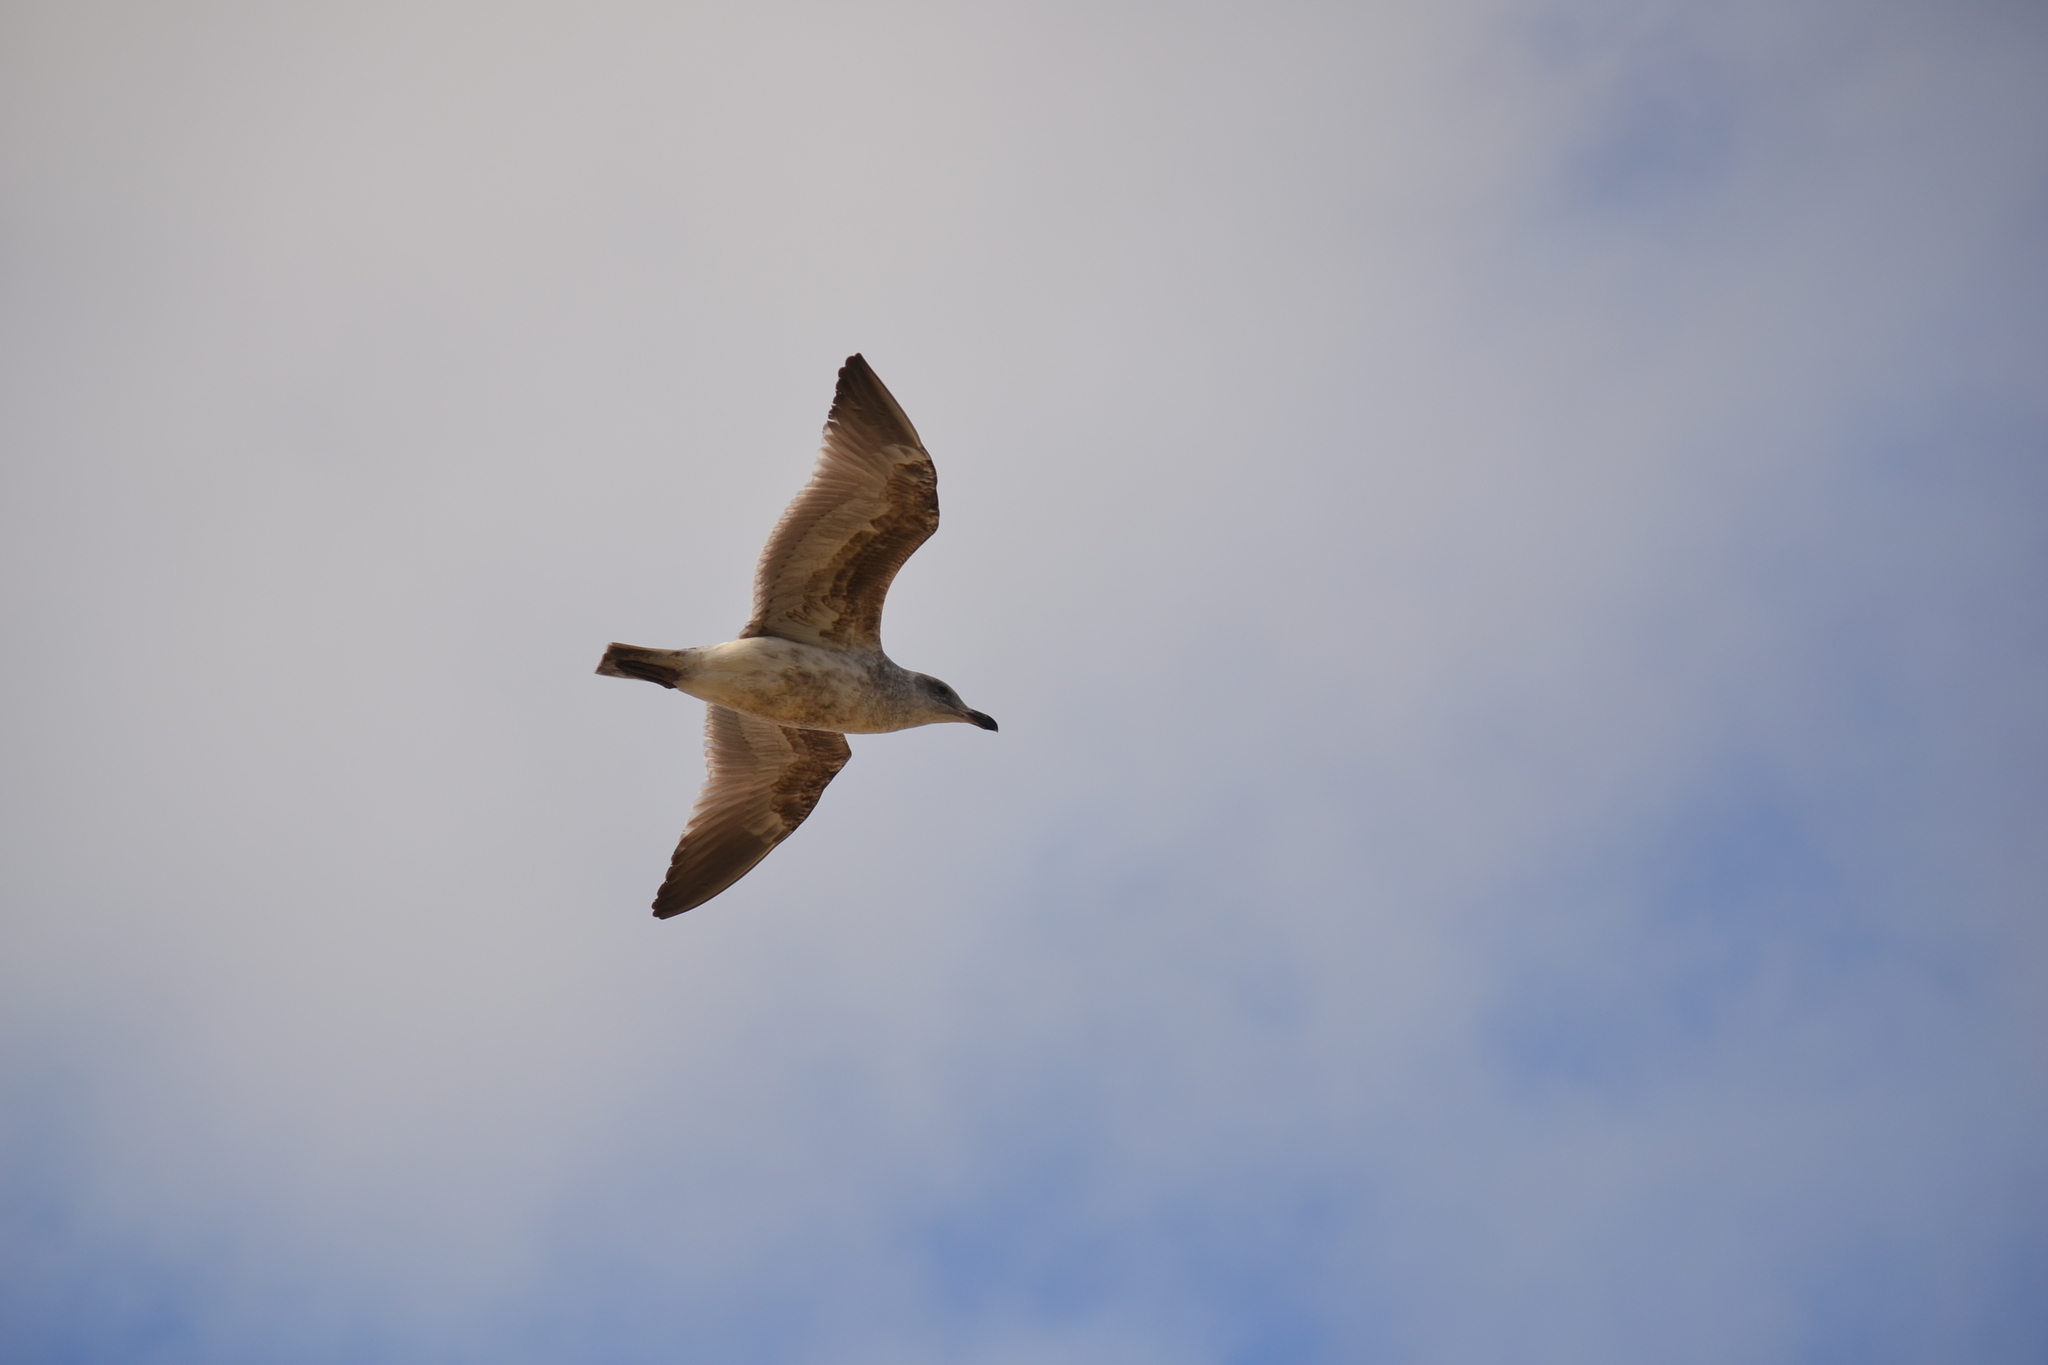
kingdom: Animalia
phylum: Chordata
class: Aves
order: Charadriiformes
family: Laridae
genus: Larus
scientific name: Larus occidentalis
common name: Western gull
